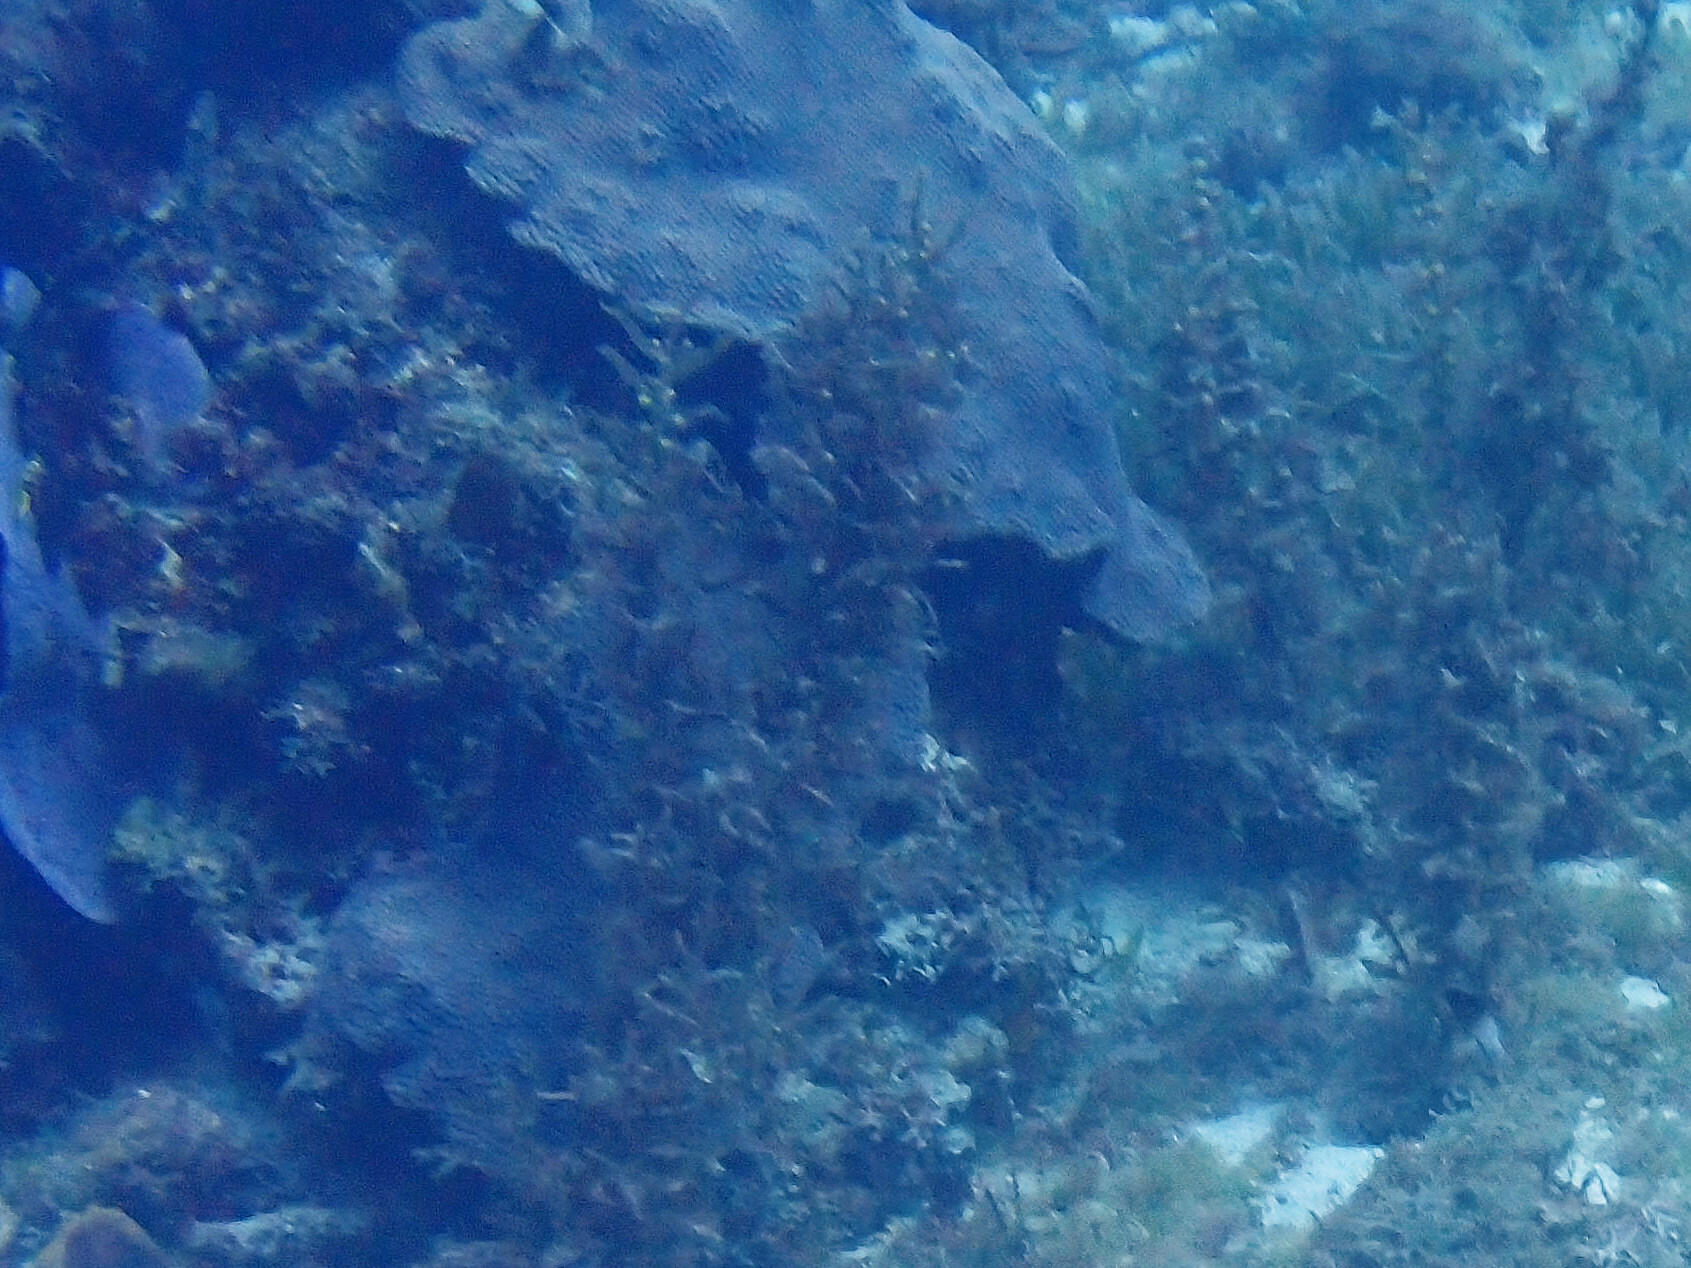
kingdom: Animalia
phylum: Cnidaria
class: Anthozoa
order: Scleractinia
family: Merulinidae
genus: Orbicella
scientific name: Orbicella faveolata
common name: Mountainous star coral
